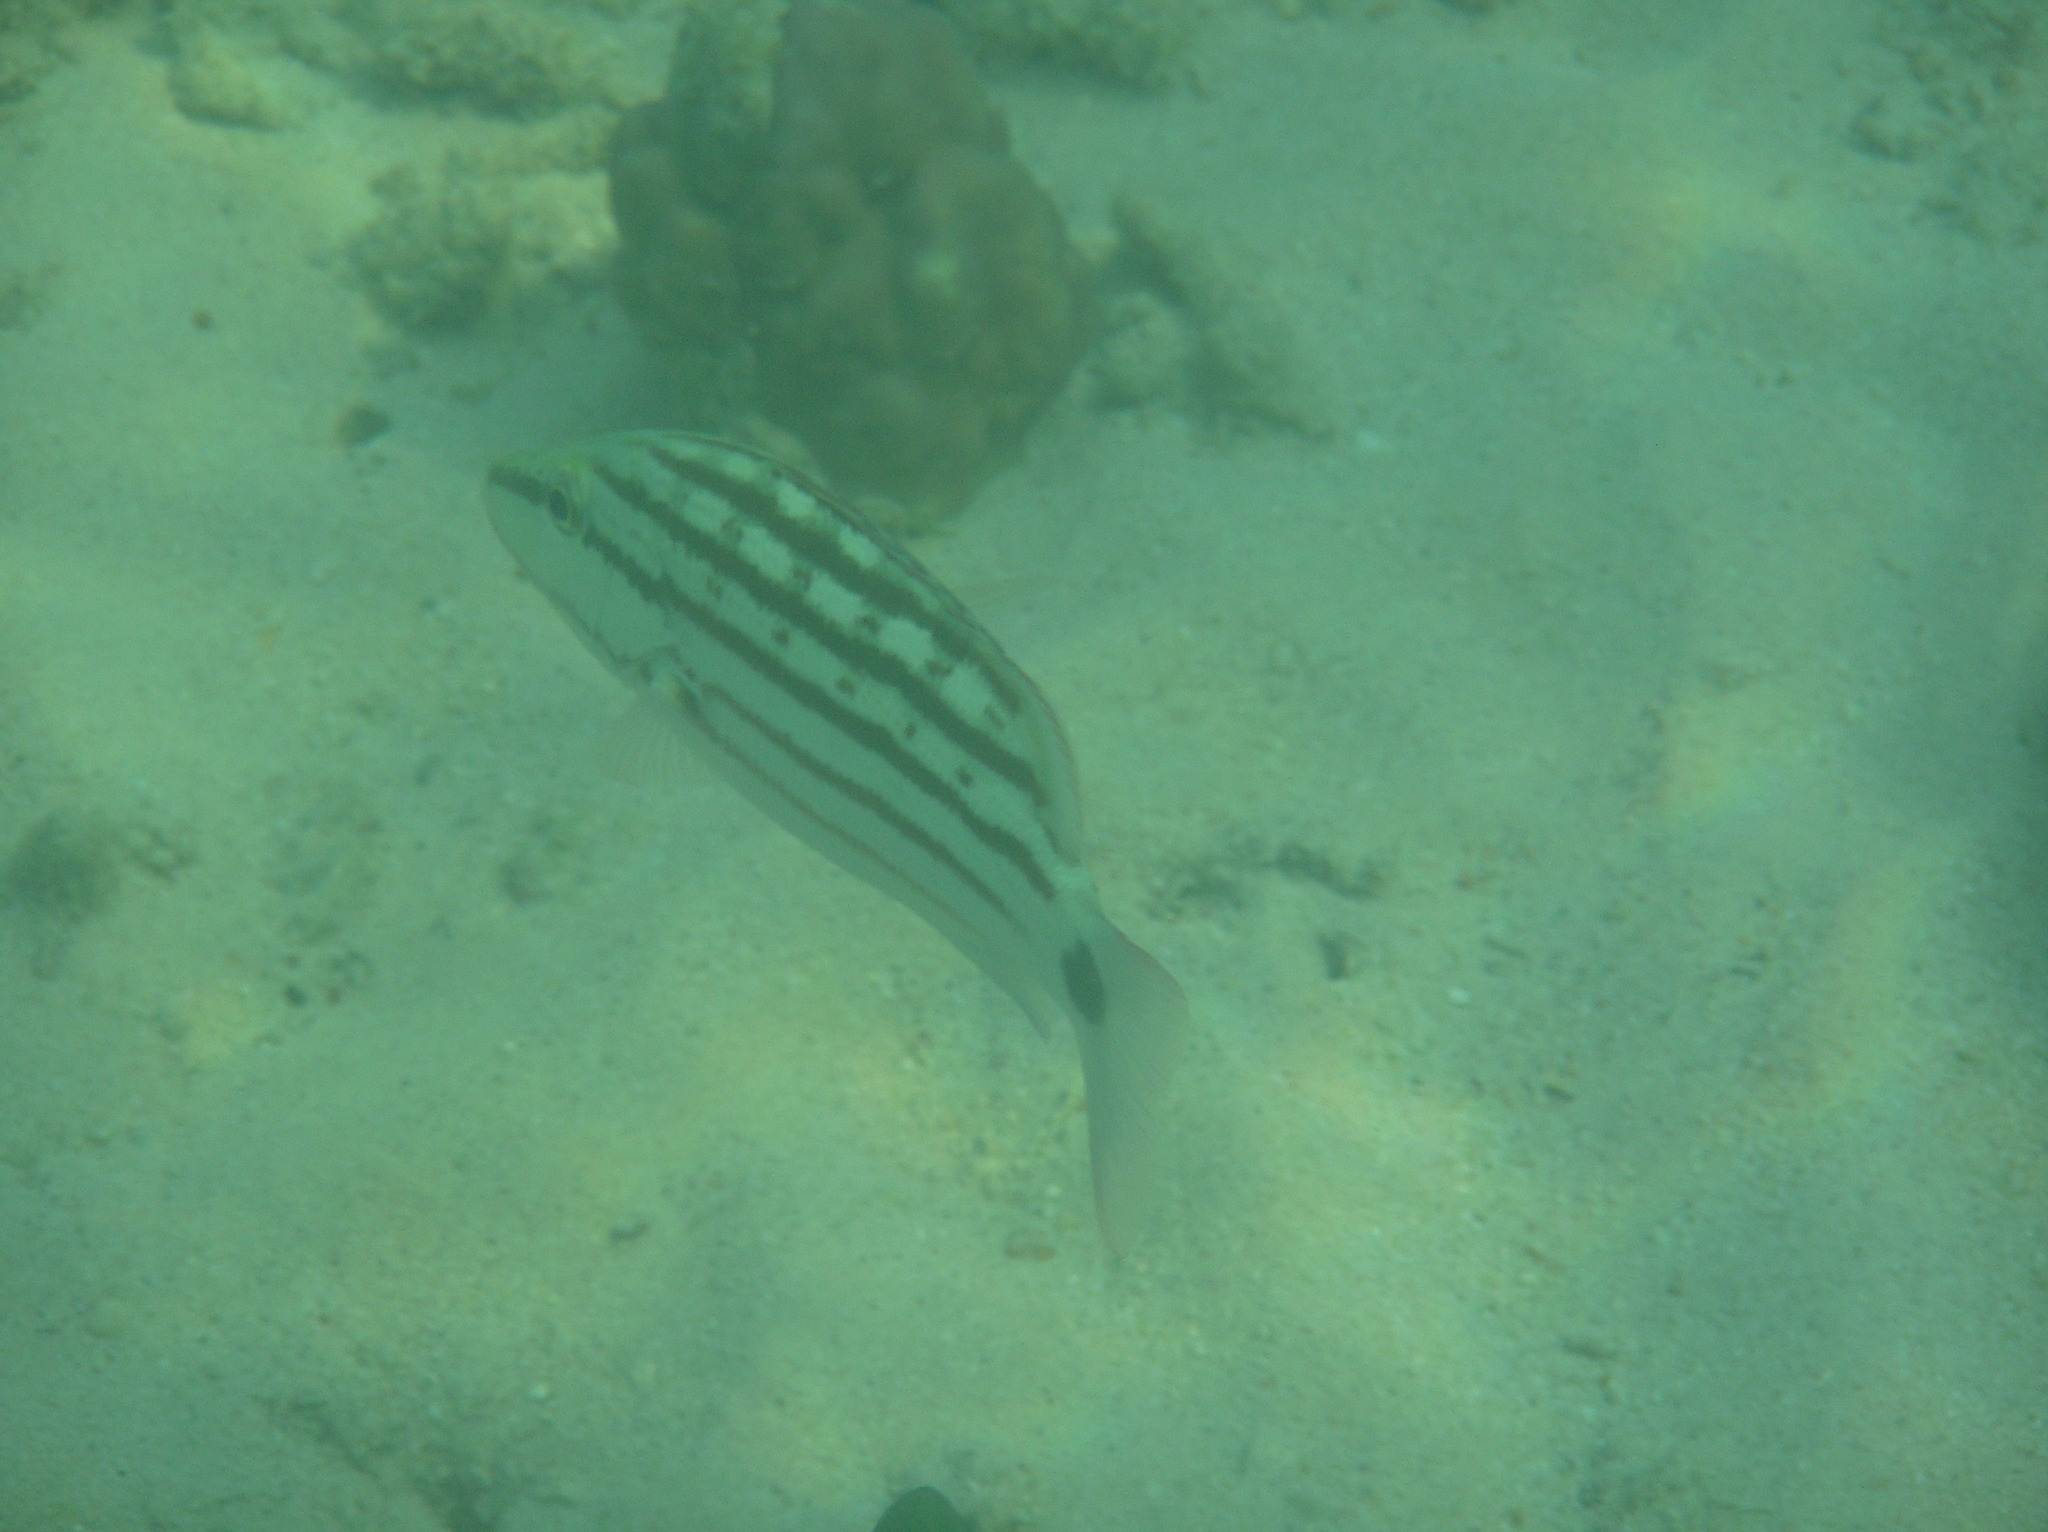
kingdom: Animalia
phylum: Chordata
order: Perciformes
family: Lutjanidae
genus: Lutjanus
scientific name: Lutjanus decussatus
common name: Checkered snapper
